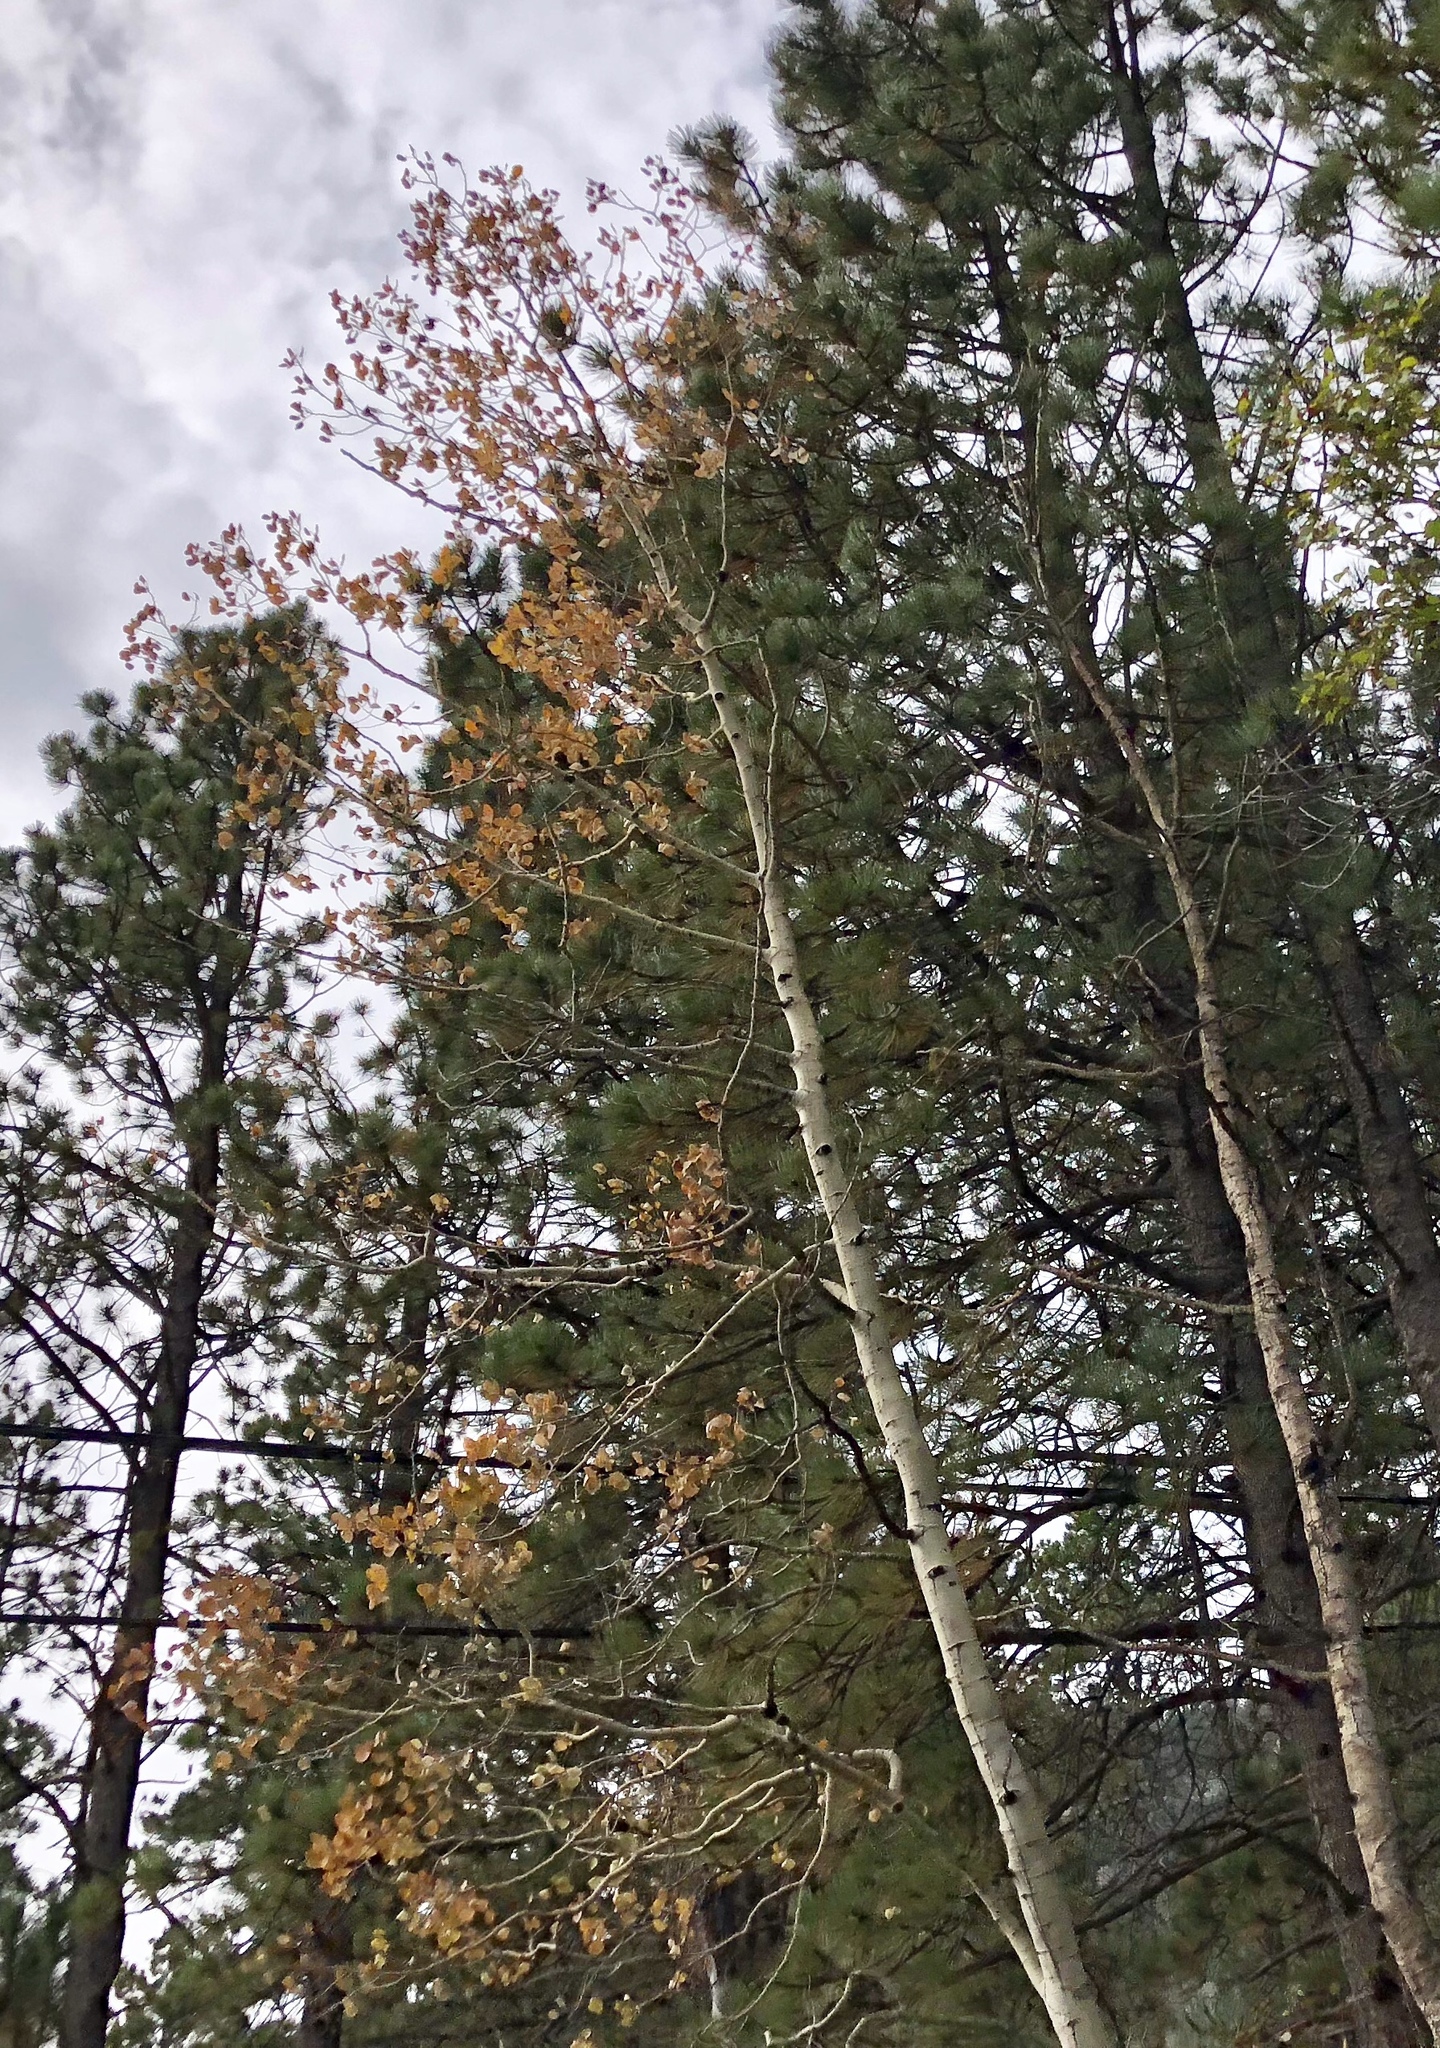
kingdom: Plantae
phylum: Tracheophyta
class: Magnoliopsida
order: Malpighiales
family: Salicaceae
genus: Populus
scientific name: Populus tremuloides
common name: Quaking aspen
